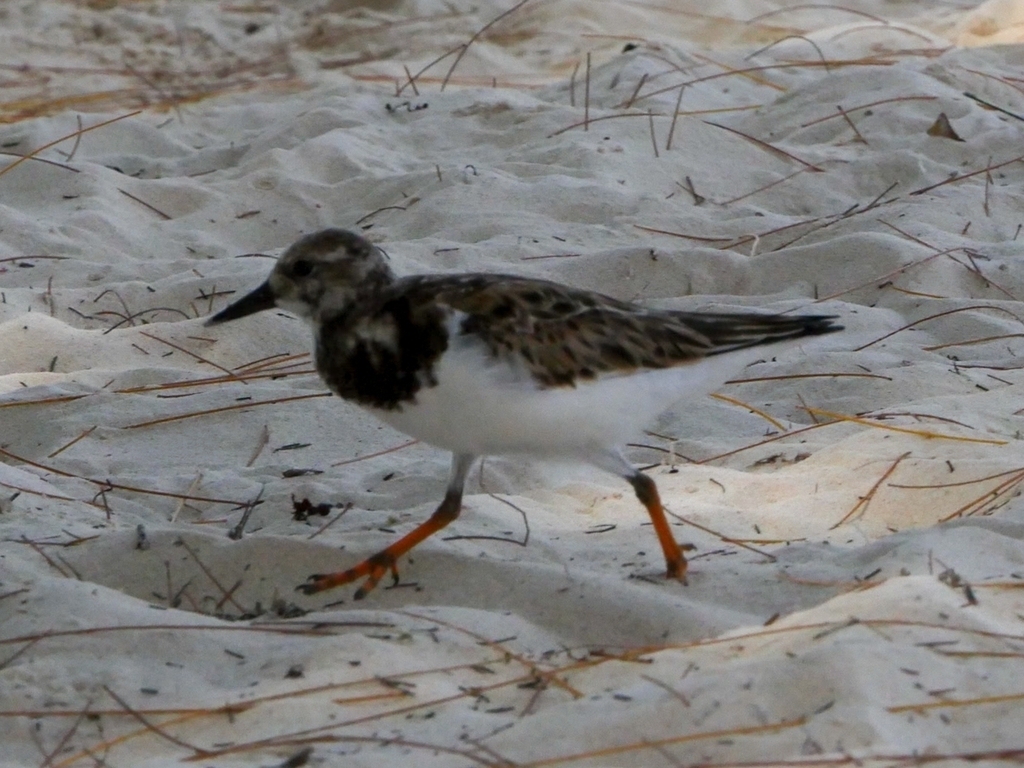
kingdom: Animalia
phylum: Chordata
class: Aves
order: Charadriiformes
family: Scolopacidae
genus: Arenaria
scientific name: Arenaria interpres
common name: Ruddy turnstone
